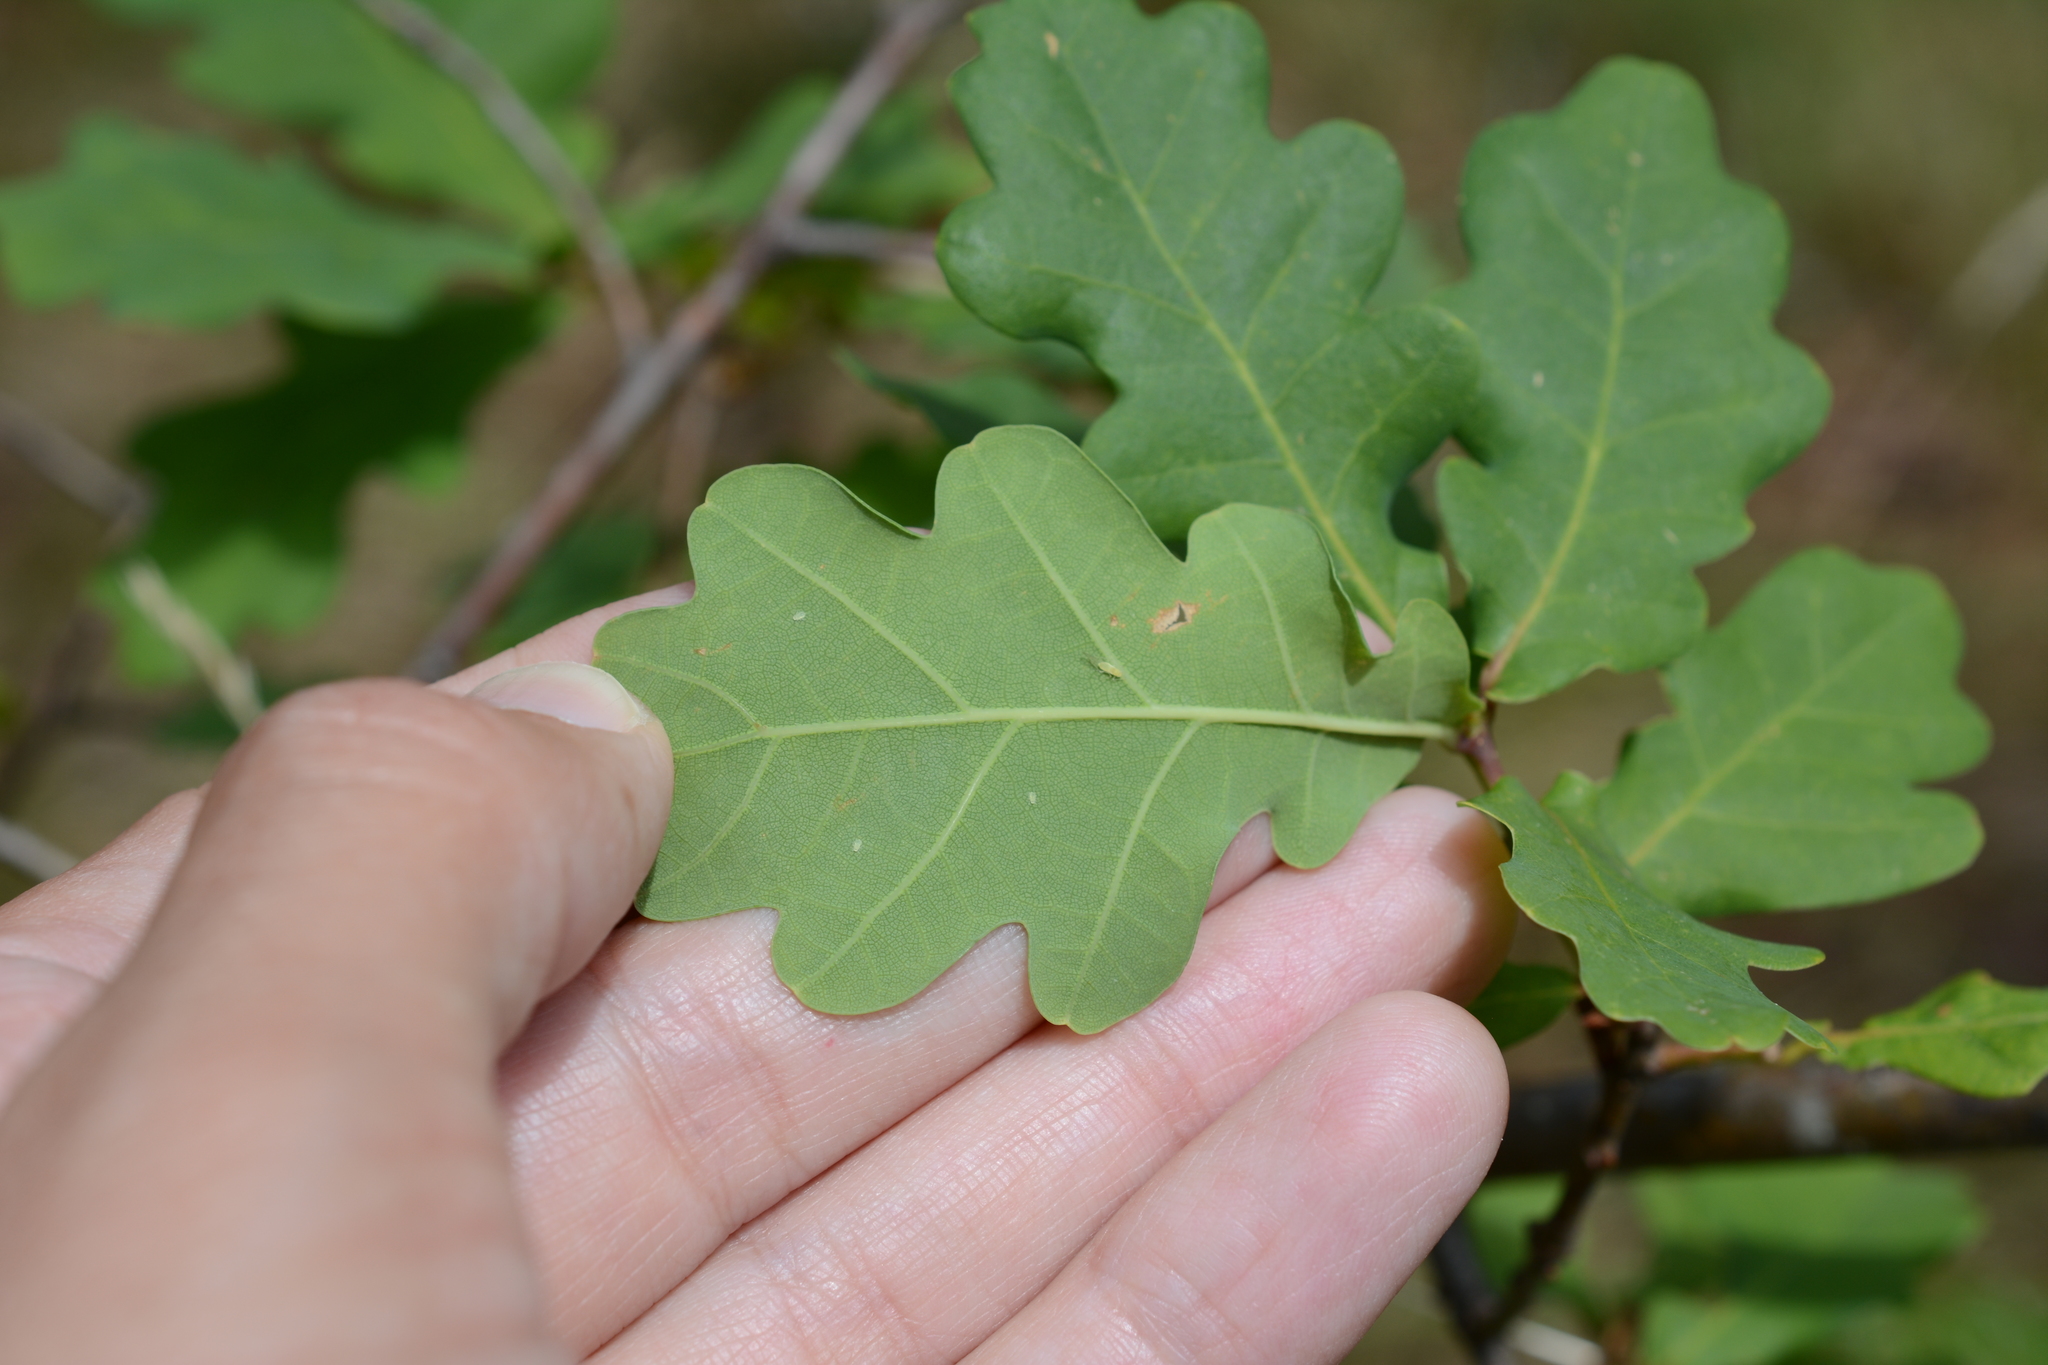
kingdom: Plantae
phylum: Tracheophyta
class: Magnoliopsida
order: Fagales
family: Fagaceae
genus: Quercus
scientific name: Quercus robur
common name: Pedunculate oak
